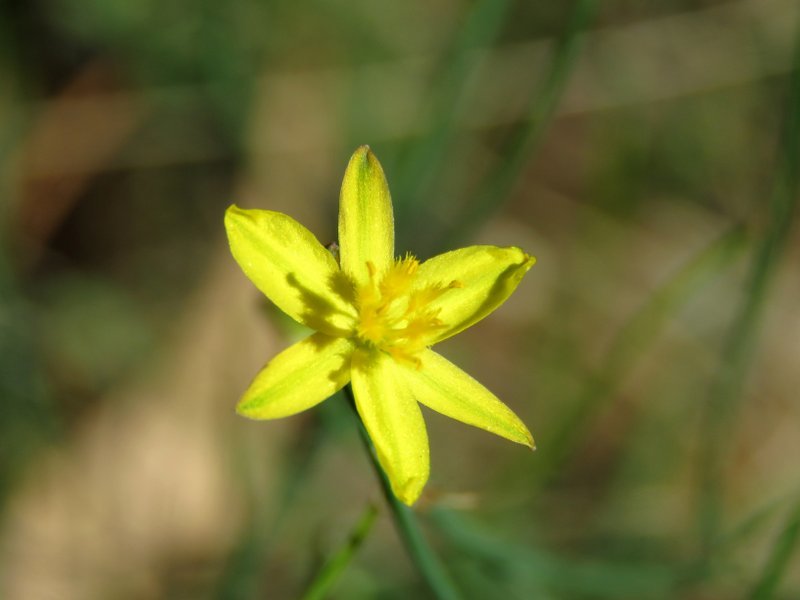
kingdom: Plantae
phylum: Tracheophyta
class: Liliopsida
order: Asparagales
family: Asphodelaceae
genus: Tricoryne
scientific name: Tricoryne elatior
